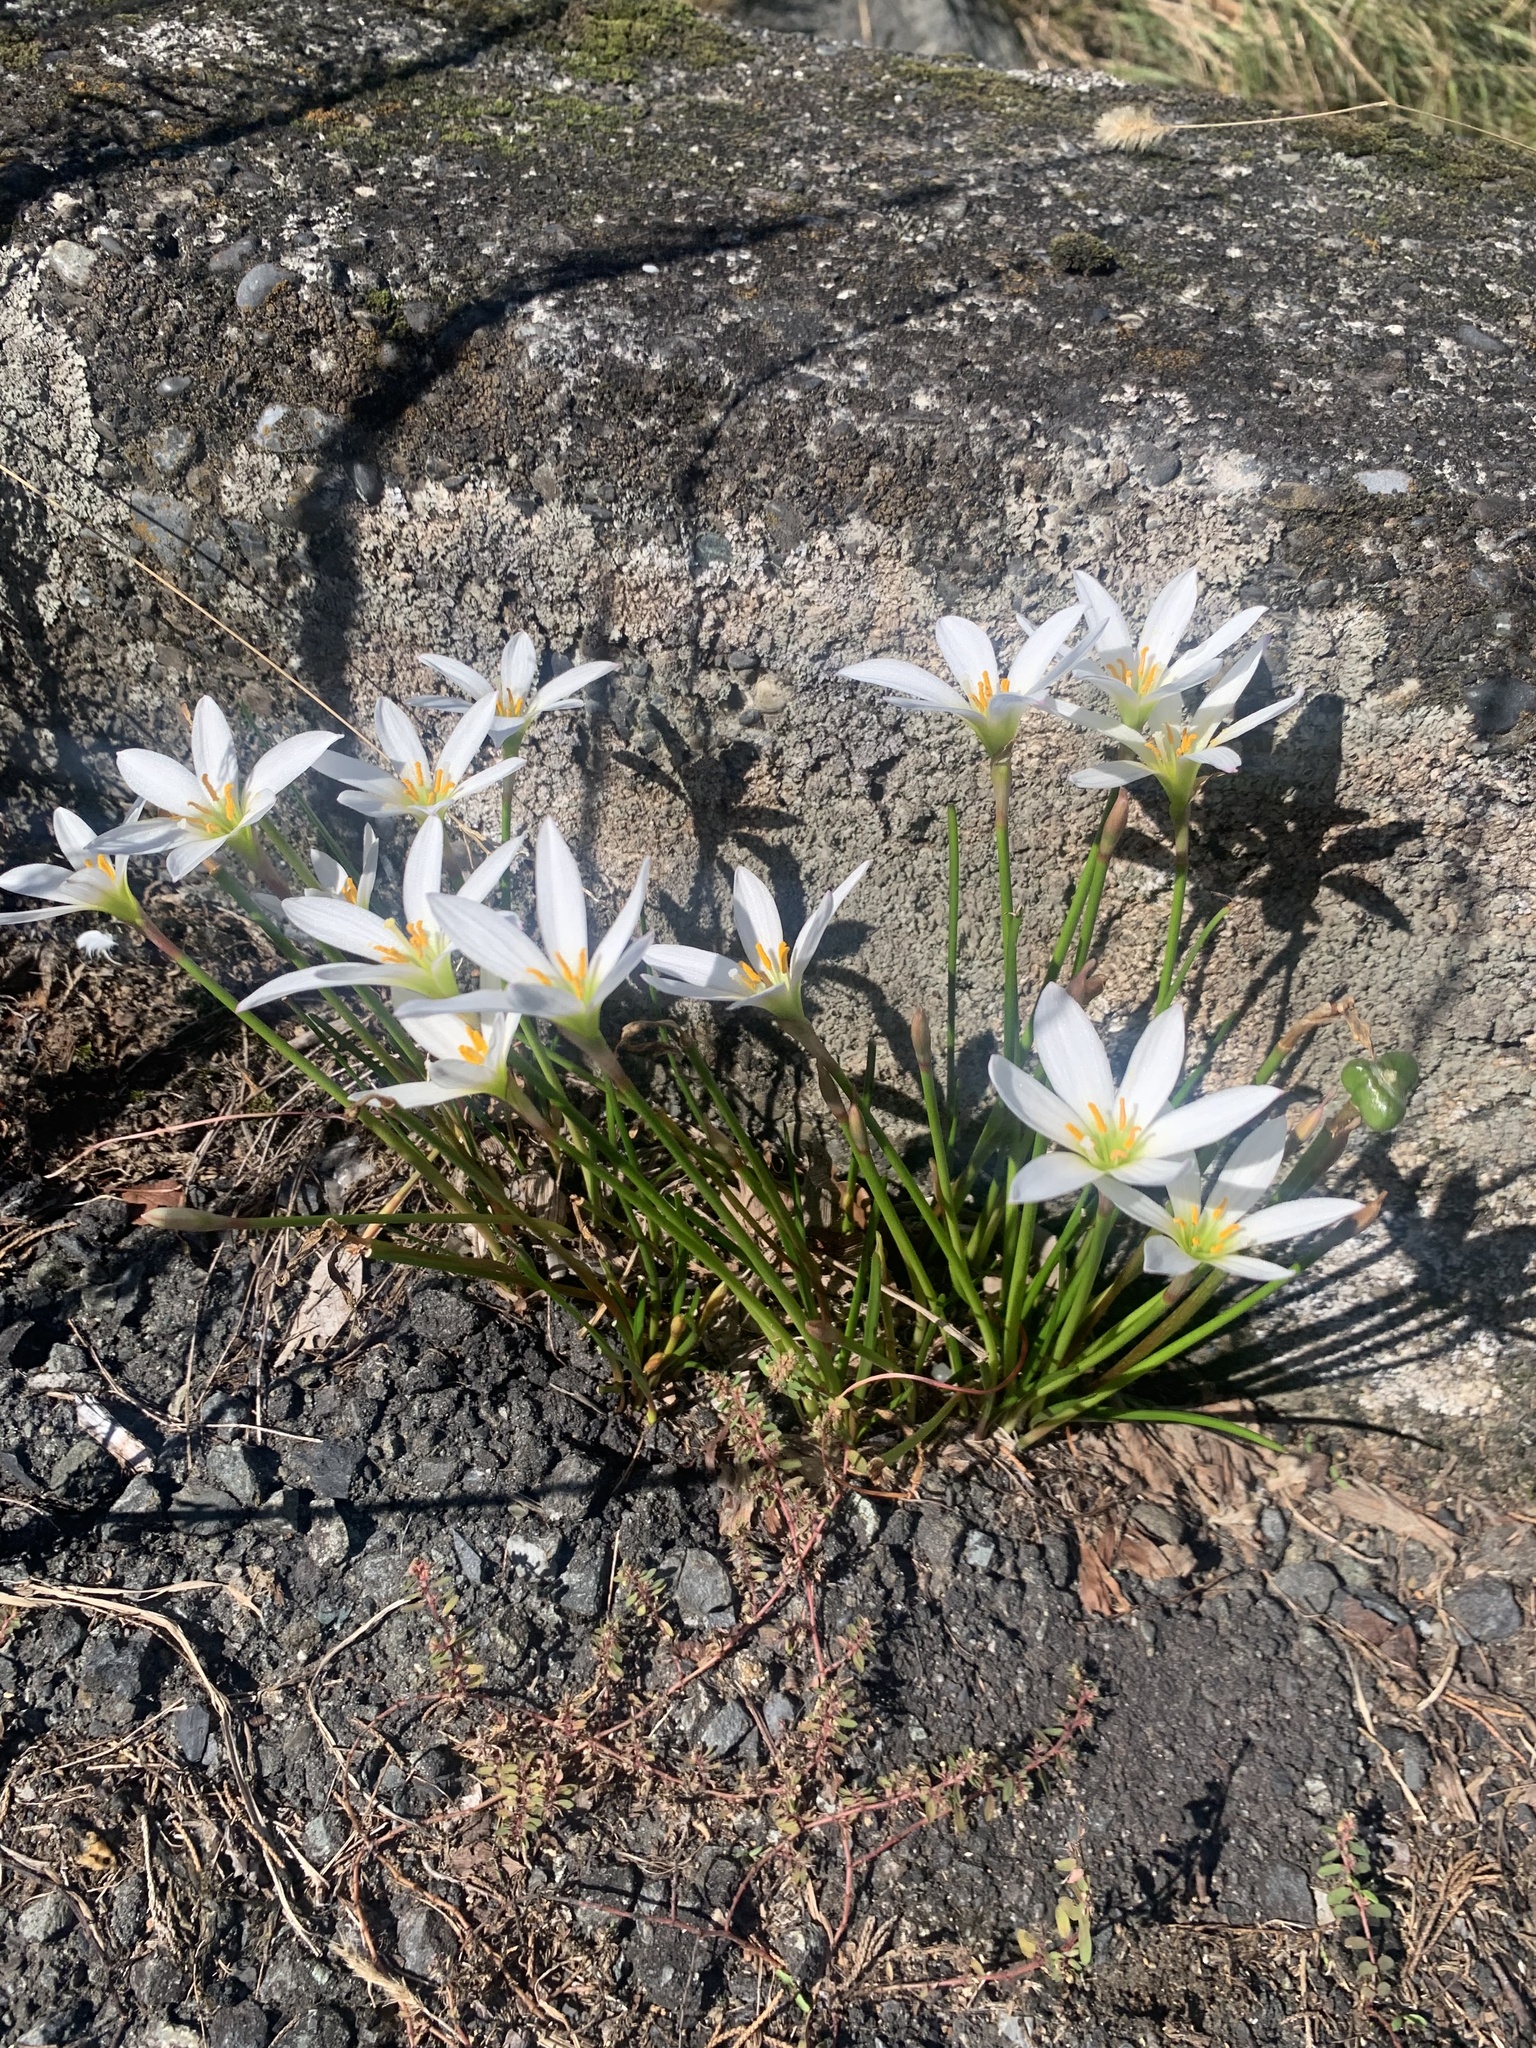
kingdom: Plantae
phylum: Tracheophyta
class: Liliopsida
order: Asparagales
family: Amaryllidaceae
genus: Zephyranthes
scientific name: Zephyranthes candida
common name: Autumn zephyrlily
